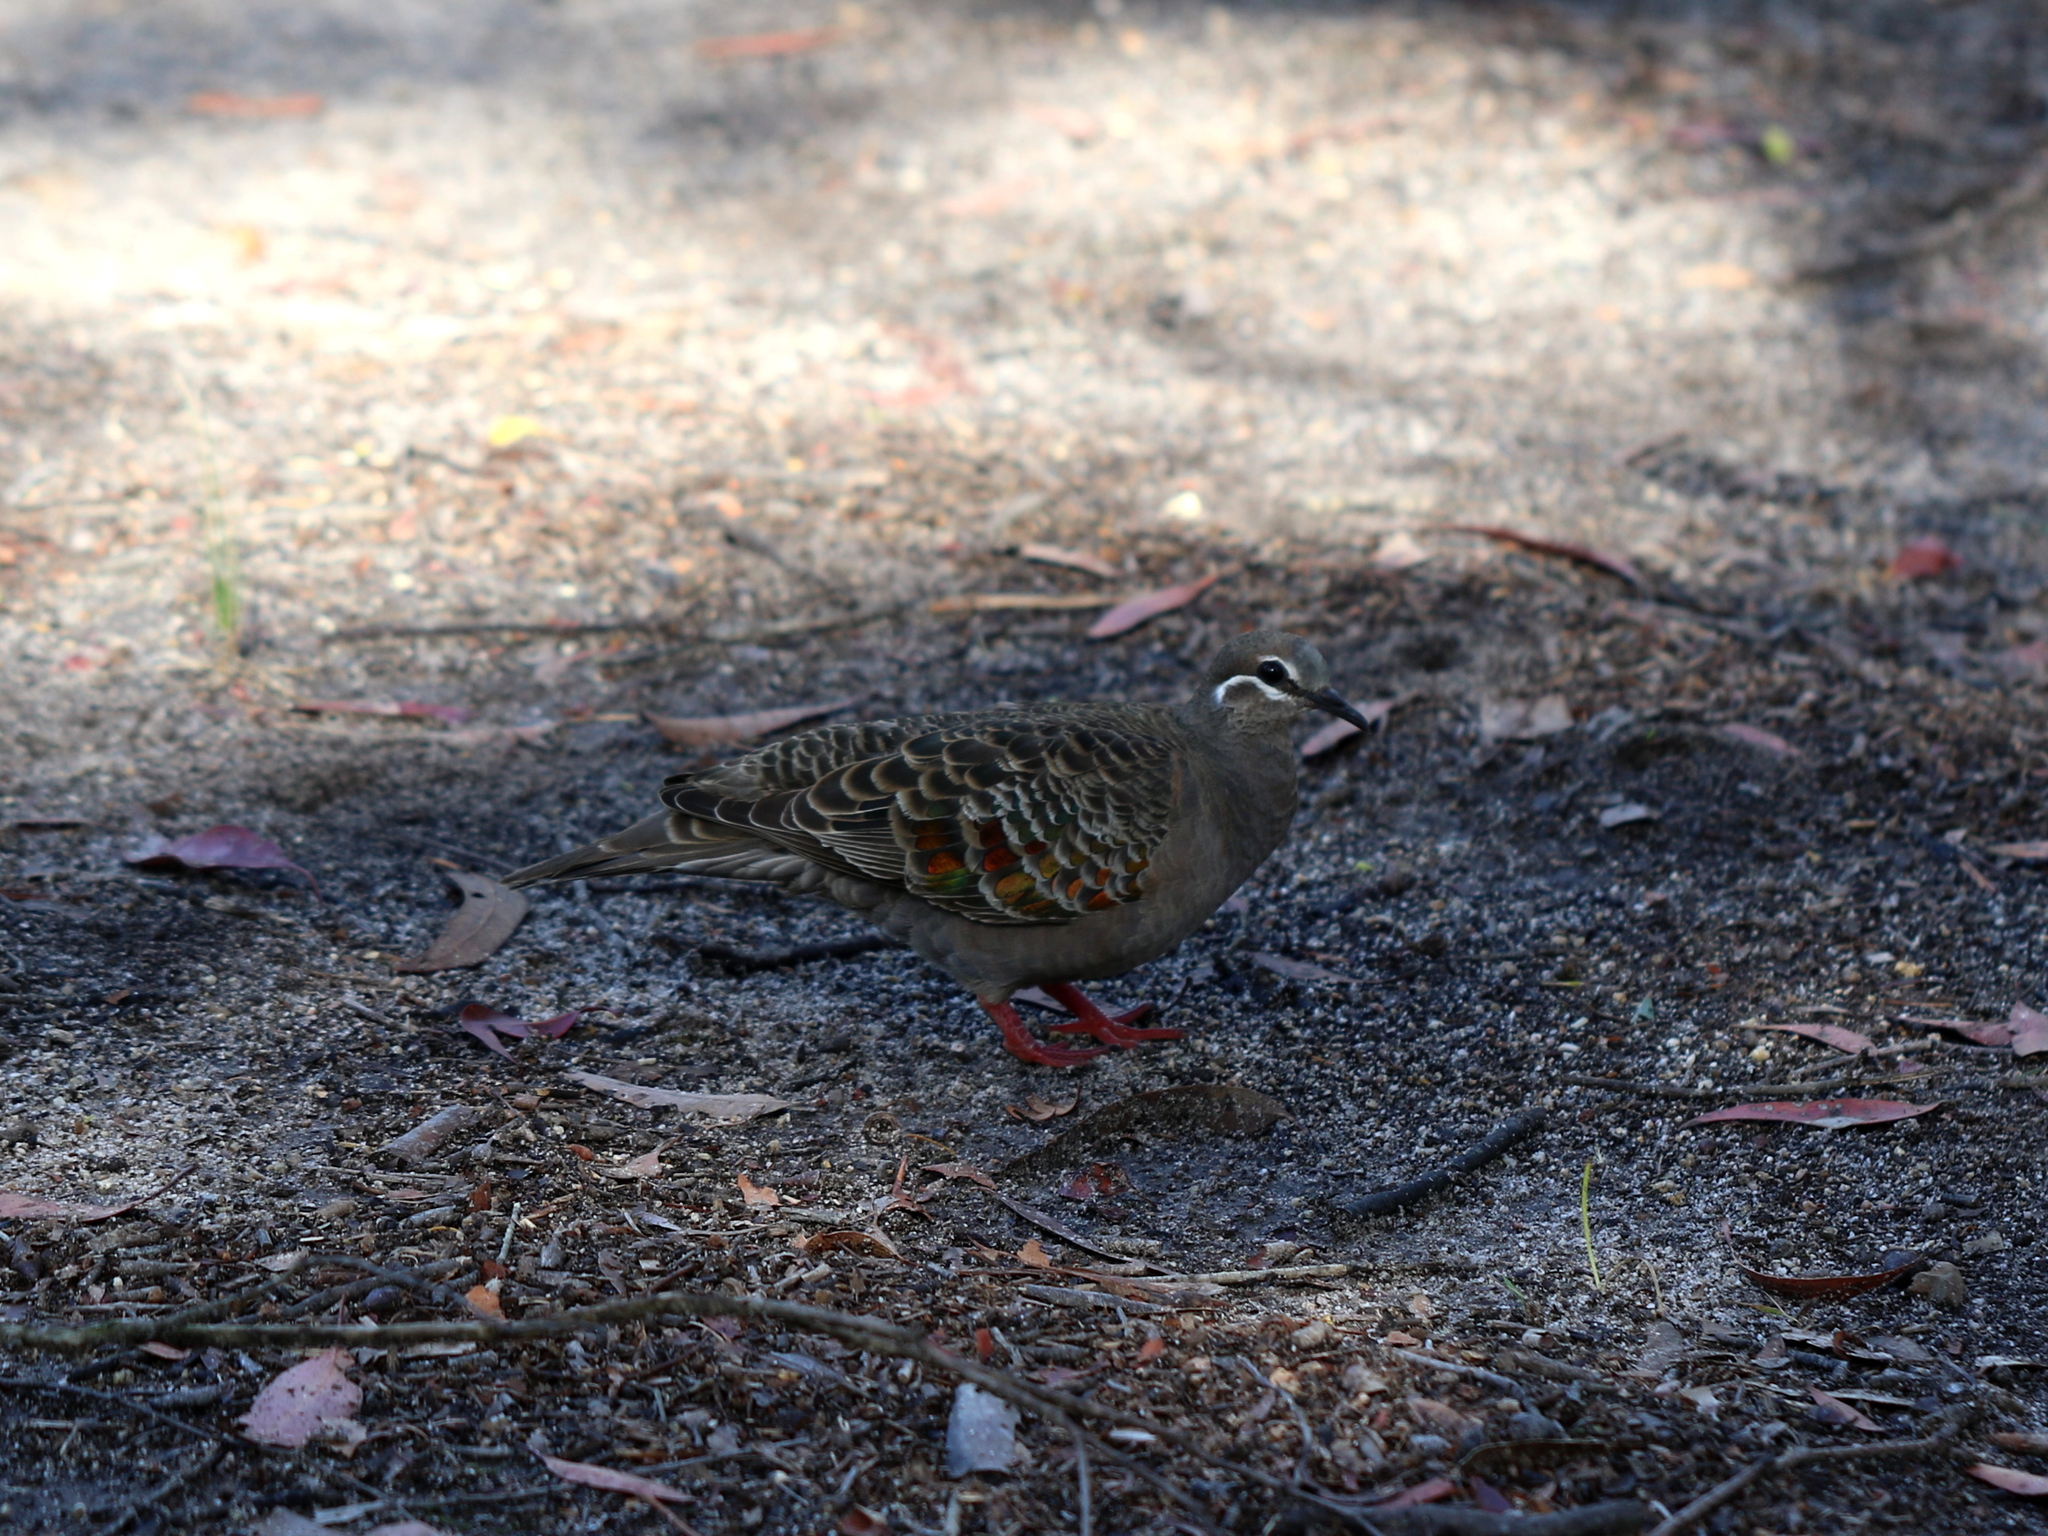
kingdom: Animalia
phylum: Chordata
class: Aves
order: Columbiformes
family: Columbidae
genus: Phaps
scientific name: Phaps chalcoptera
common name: Common bronzewing
